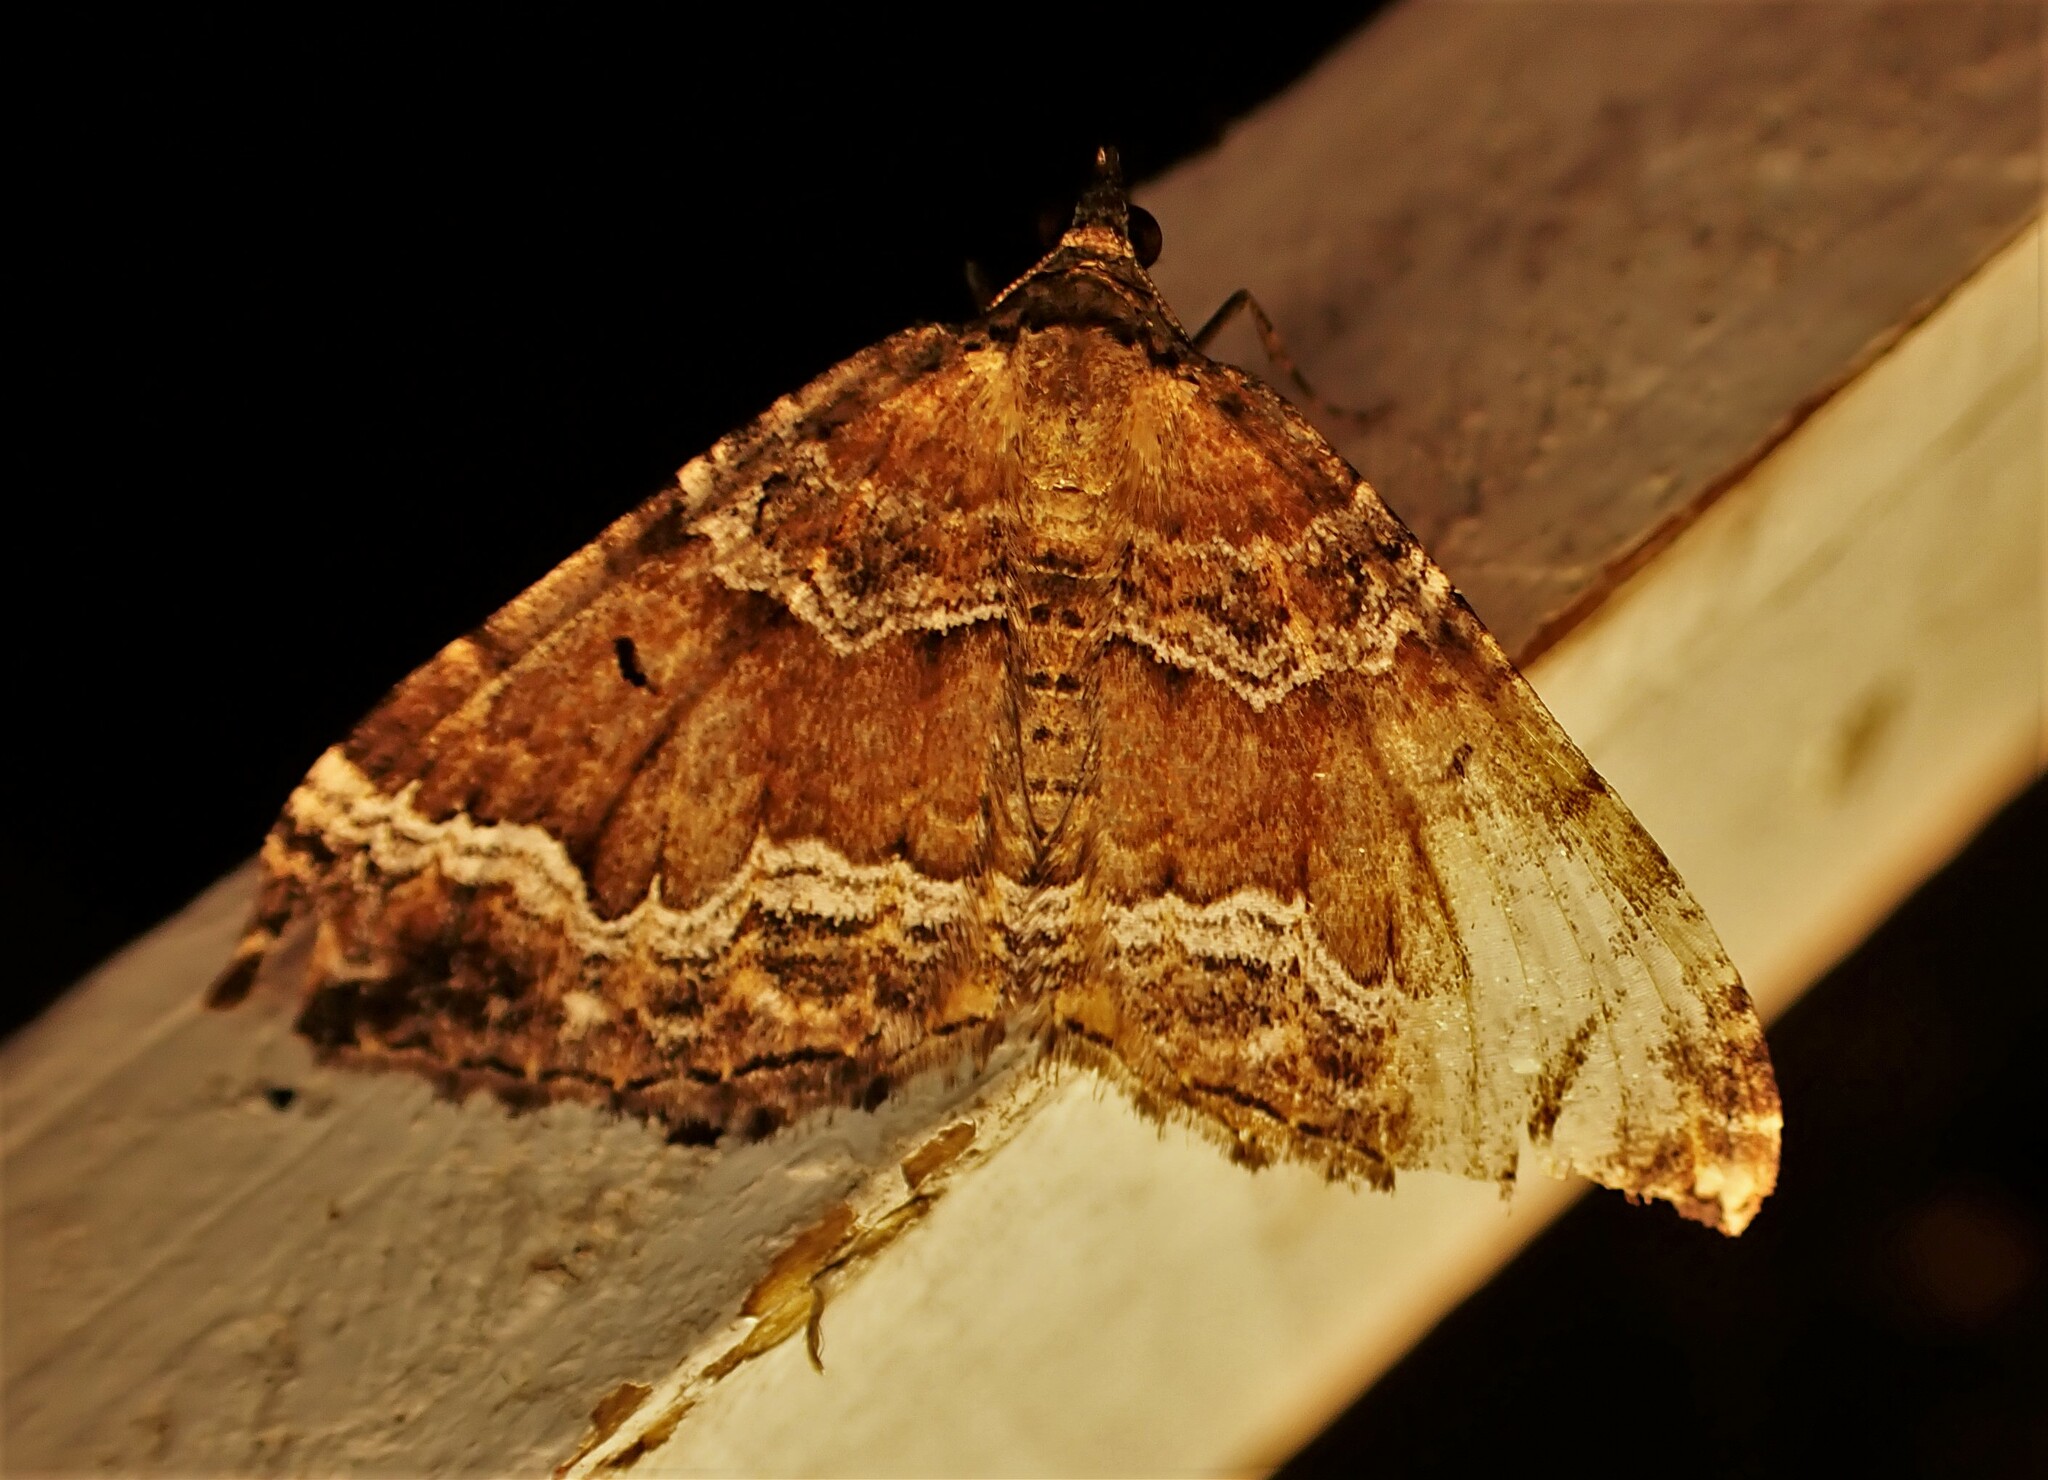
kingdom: Animalia
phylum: Arthropoda
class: Insecta
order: Lepidoptera
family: Geometridae
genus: Hydriomena
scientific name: Hydriomena deltoidata
